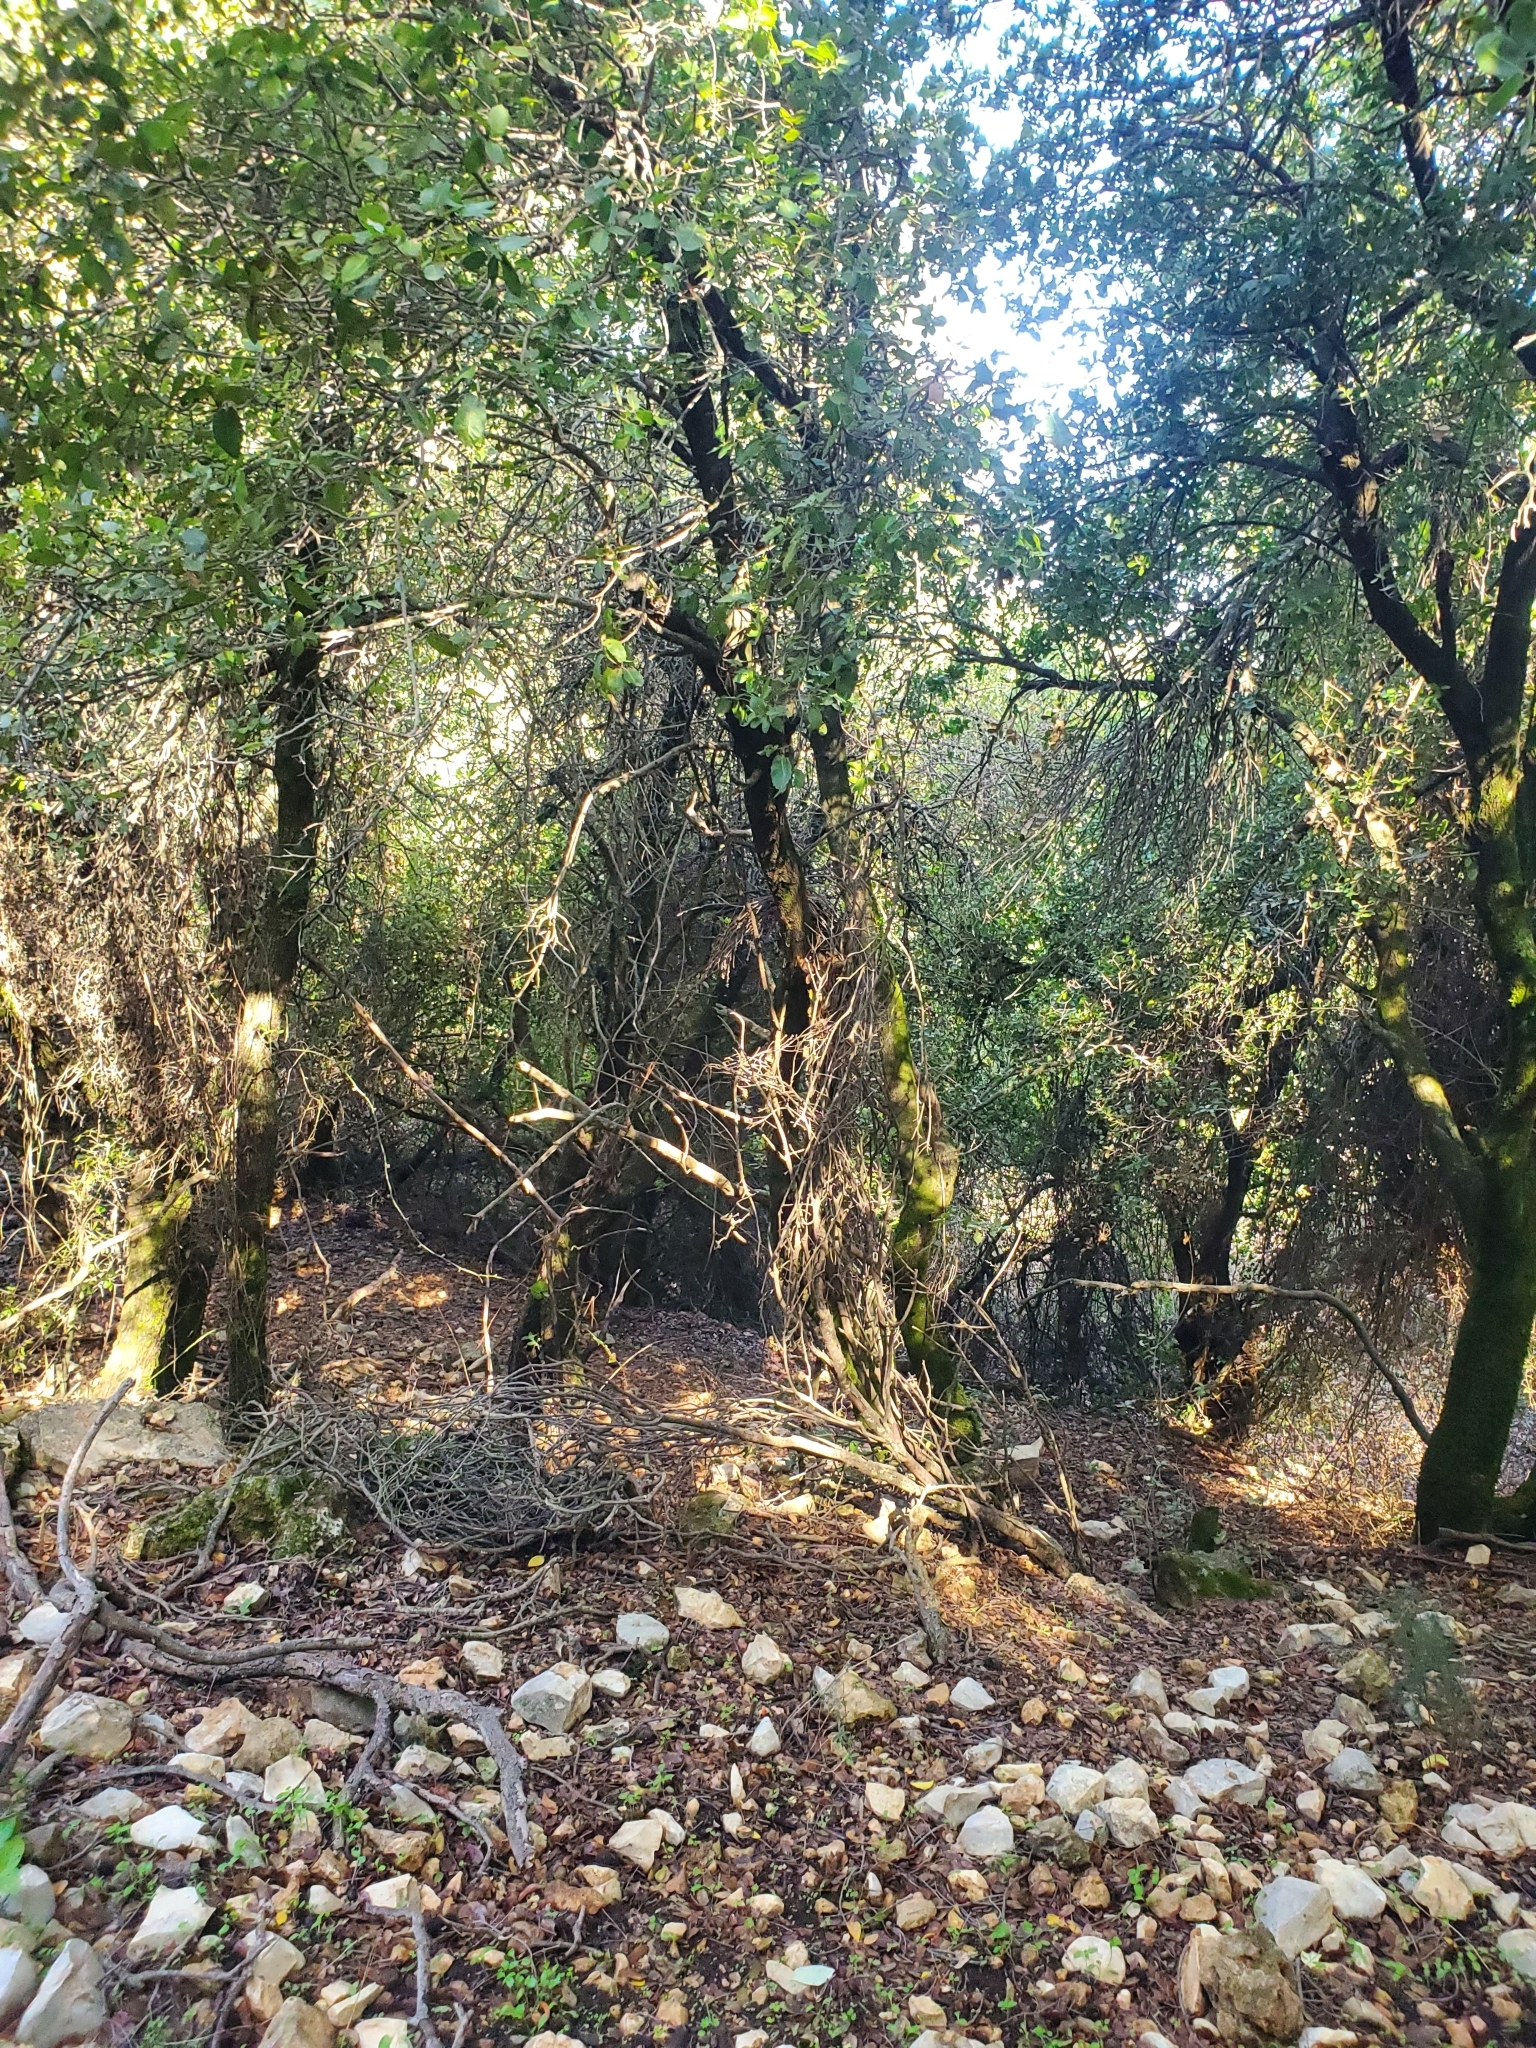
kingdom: Plantae
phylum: Tracheophyta
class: Magnoliopsida
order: Fagales
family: Fagaceae
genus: Quercus
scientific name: Quercus coccifera
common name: Kermes oak
